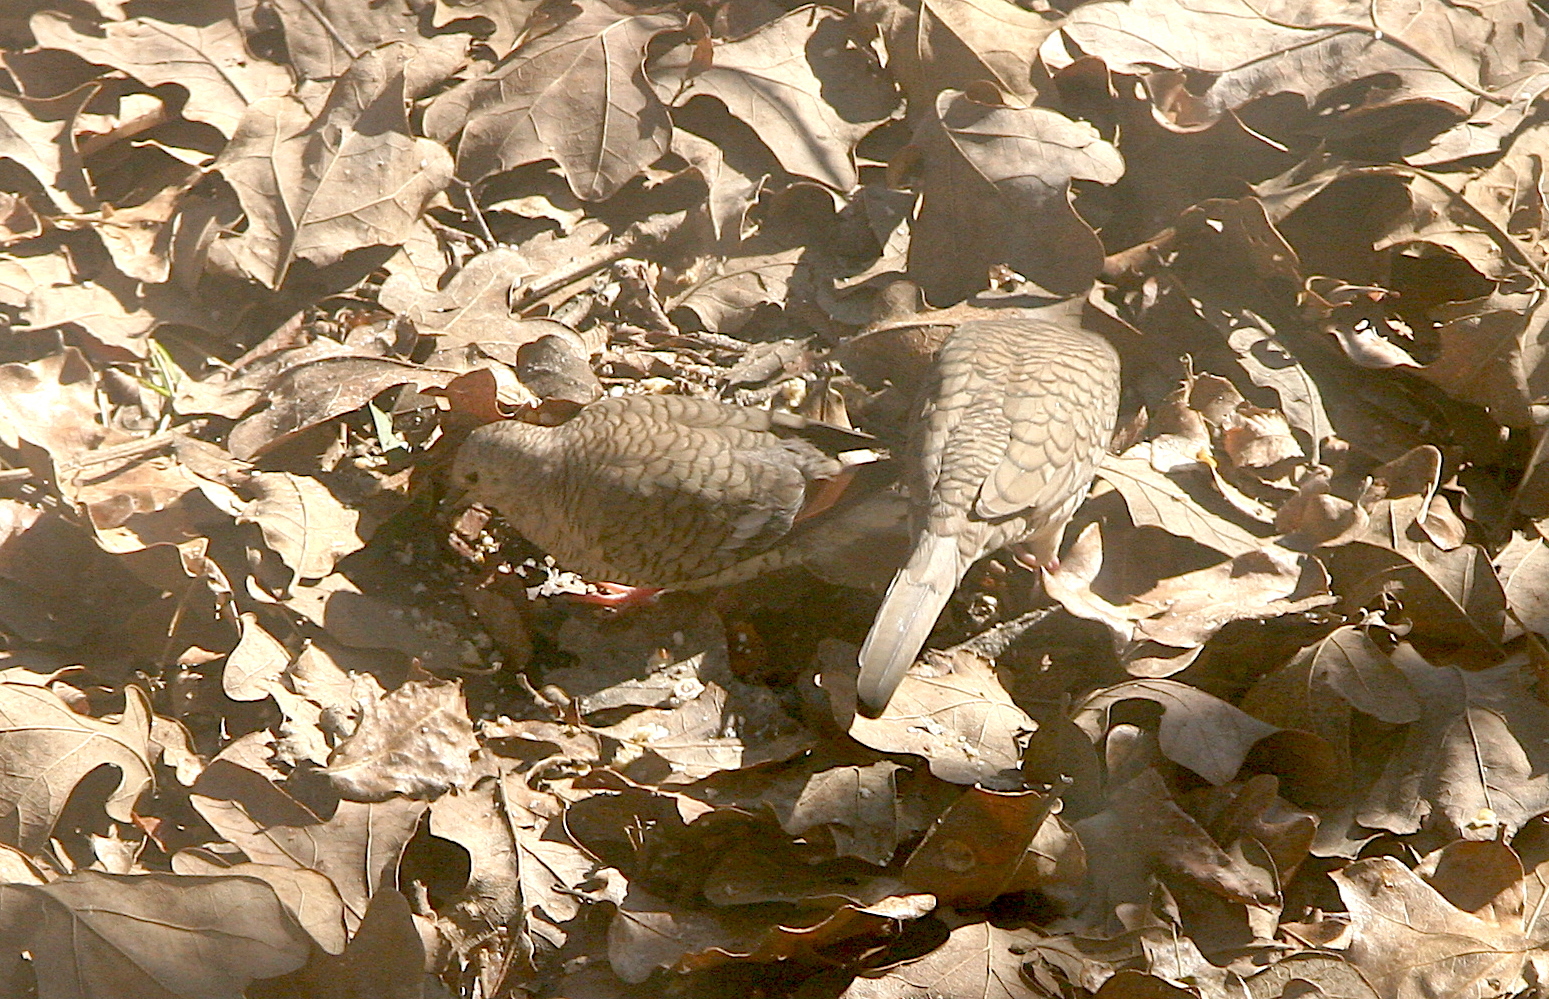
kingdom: Animalia
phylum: Chordata
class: Aves
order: Columbiformes
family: Columbidae
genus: Columbina
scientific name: Columbina inca
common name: Inca dove
